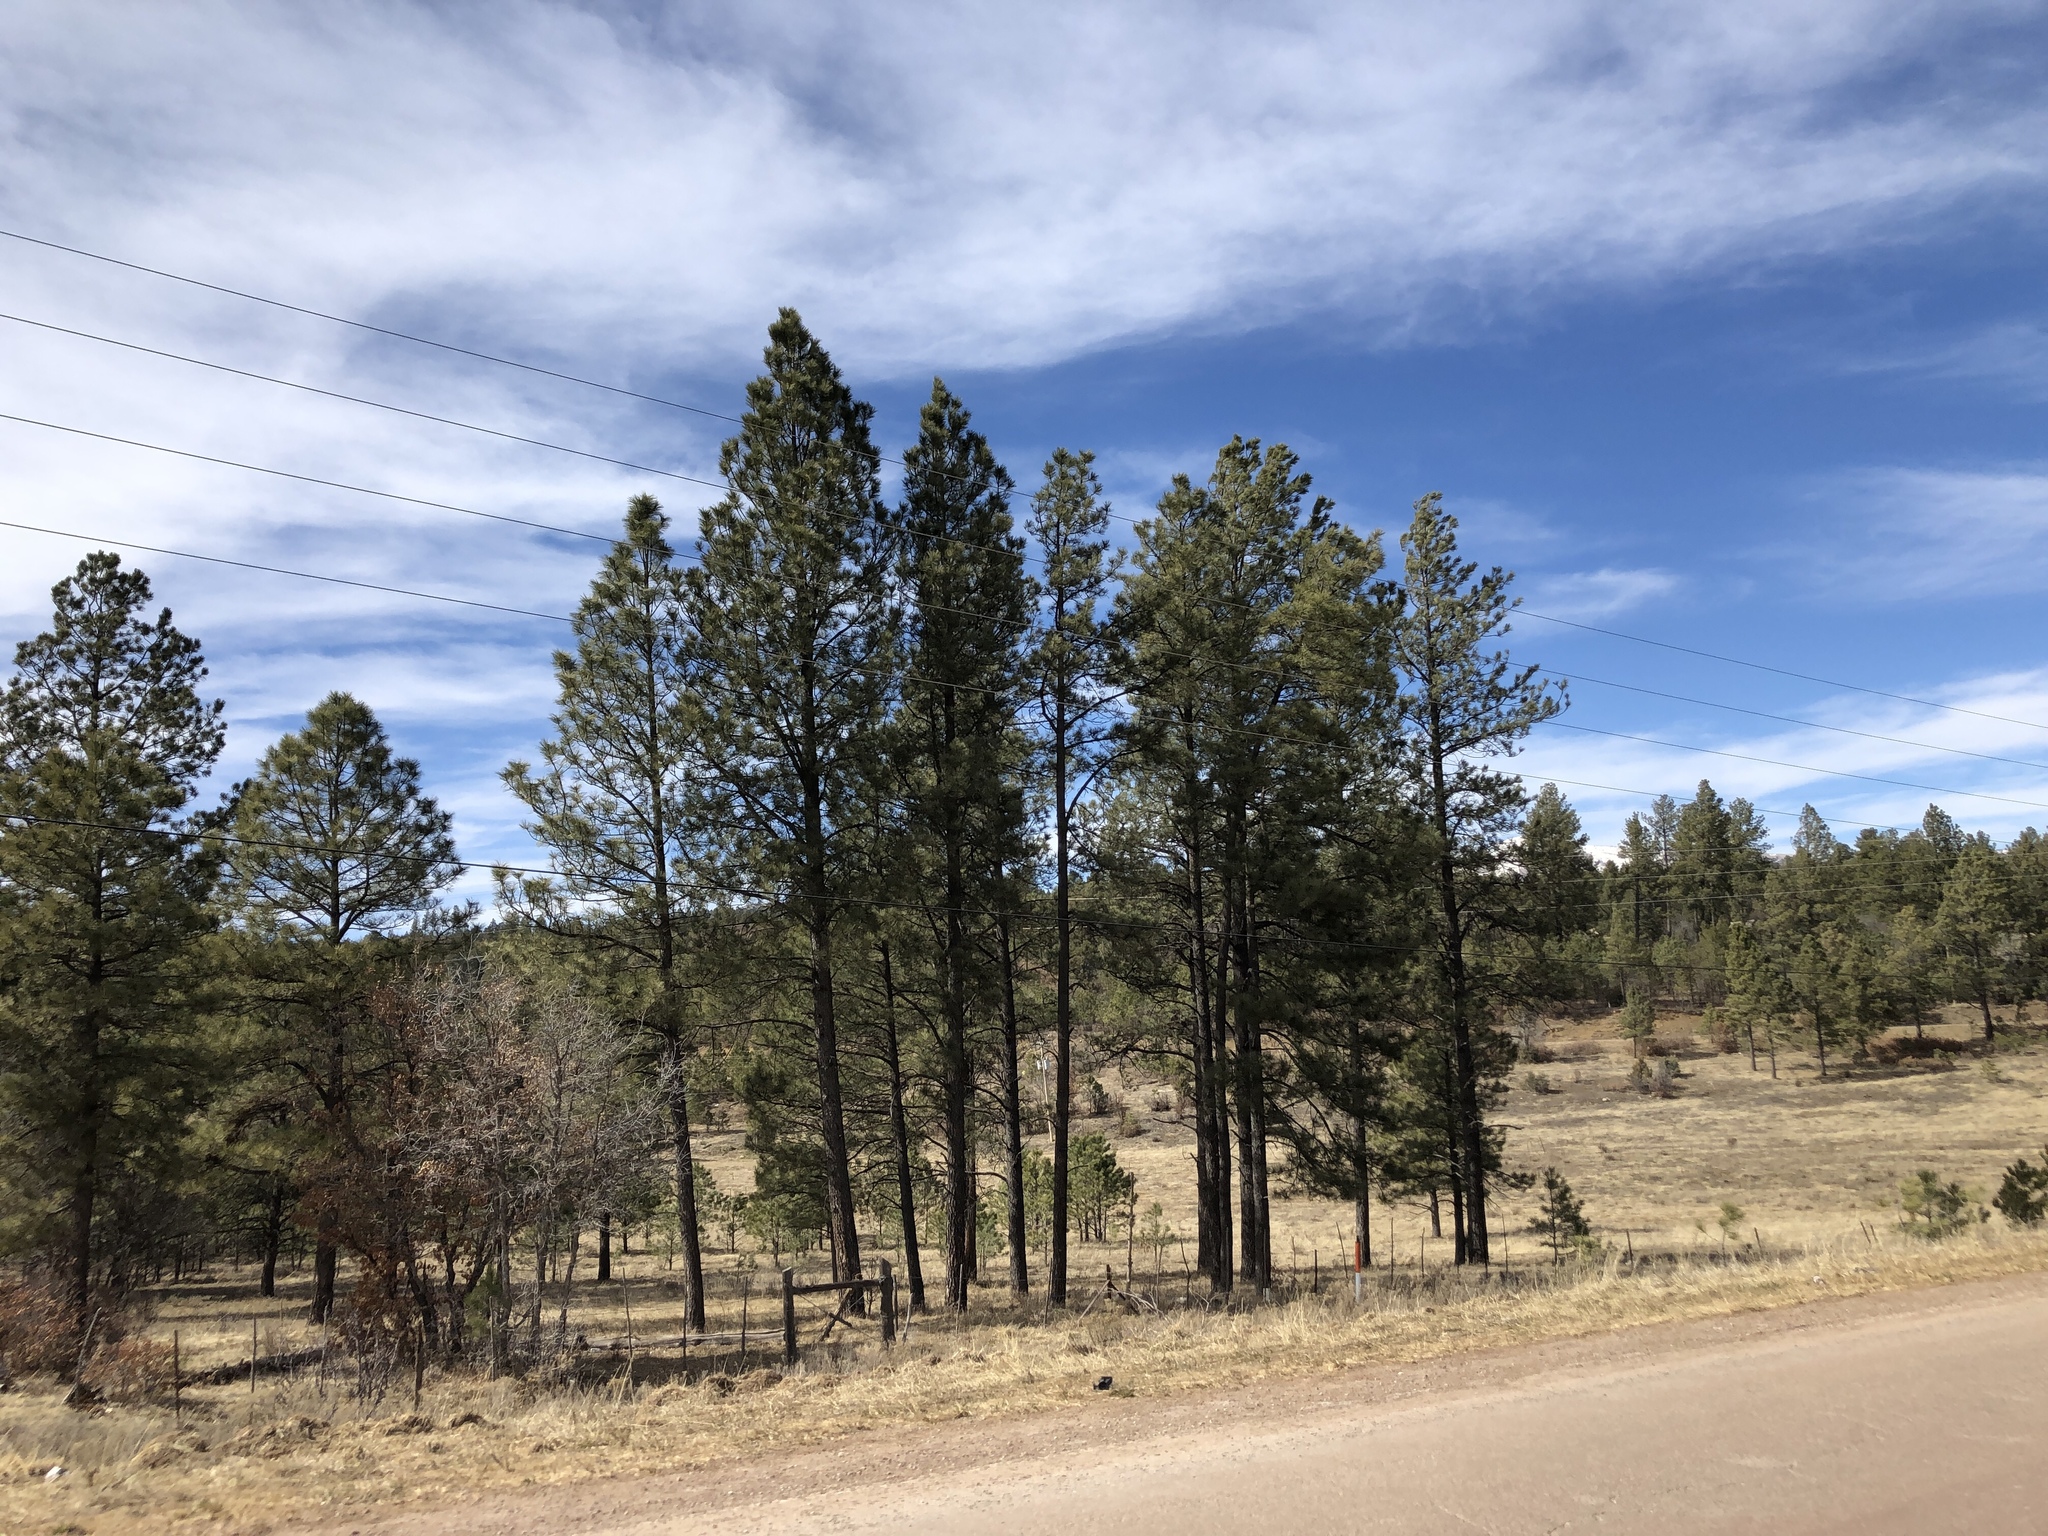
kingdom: Plantae
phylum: Tracheophyta
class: Pinopsida
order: Pinales
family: Pinaceae
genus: Pinus
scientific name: Pinus ponderosa
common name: Western yellow-pine
